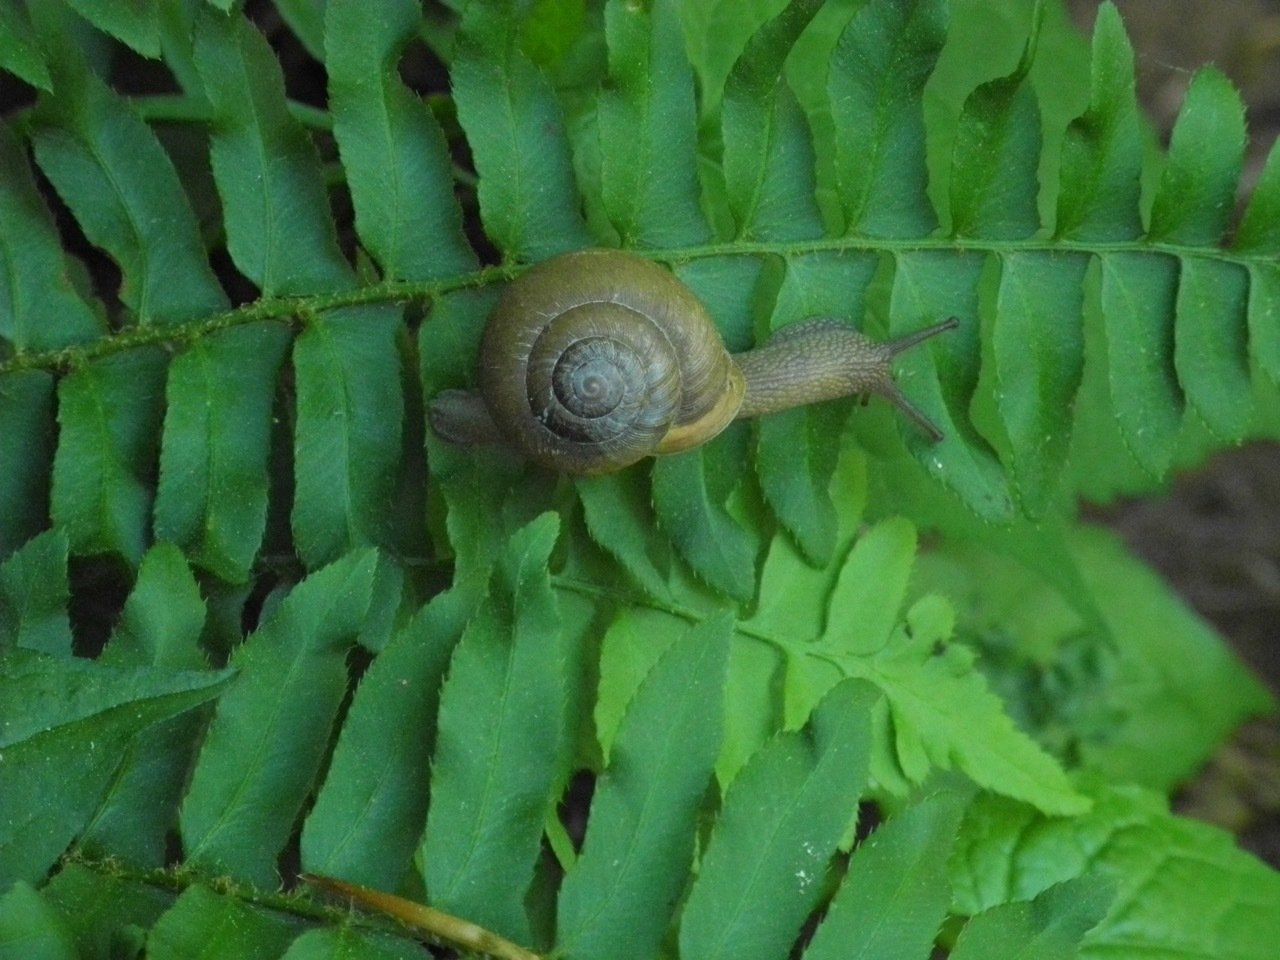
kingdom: Animalia
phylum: Mollusca
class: Gastropoda
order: Stylommatophora
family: Polygyridae
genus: Neohelix
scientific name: Neohelix major
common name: Southeastern whitelip
